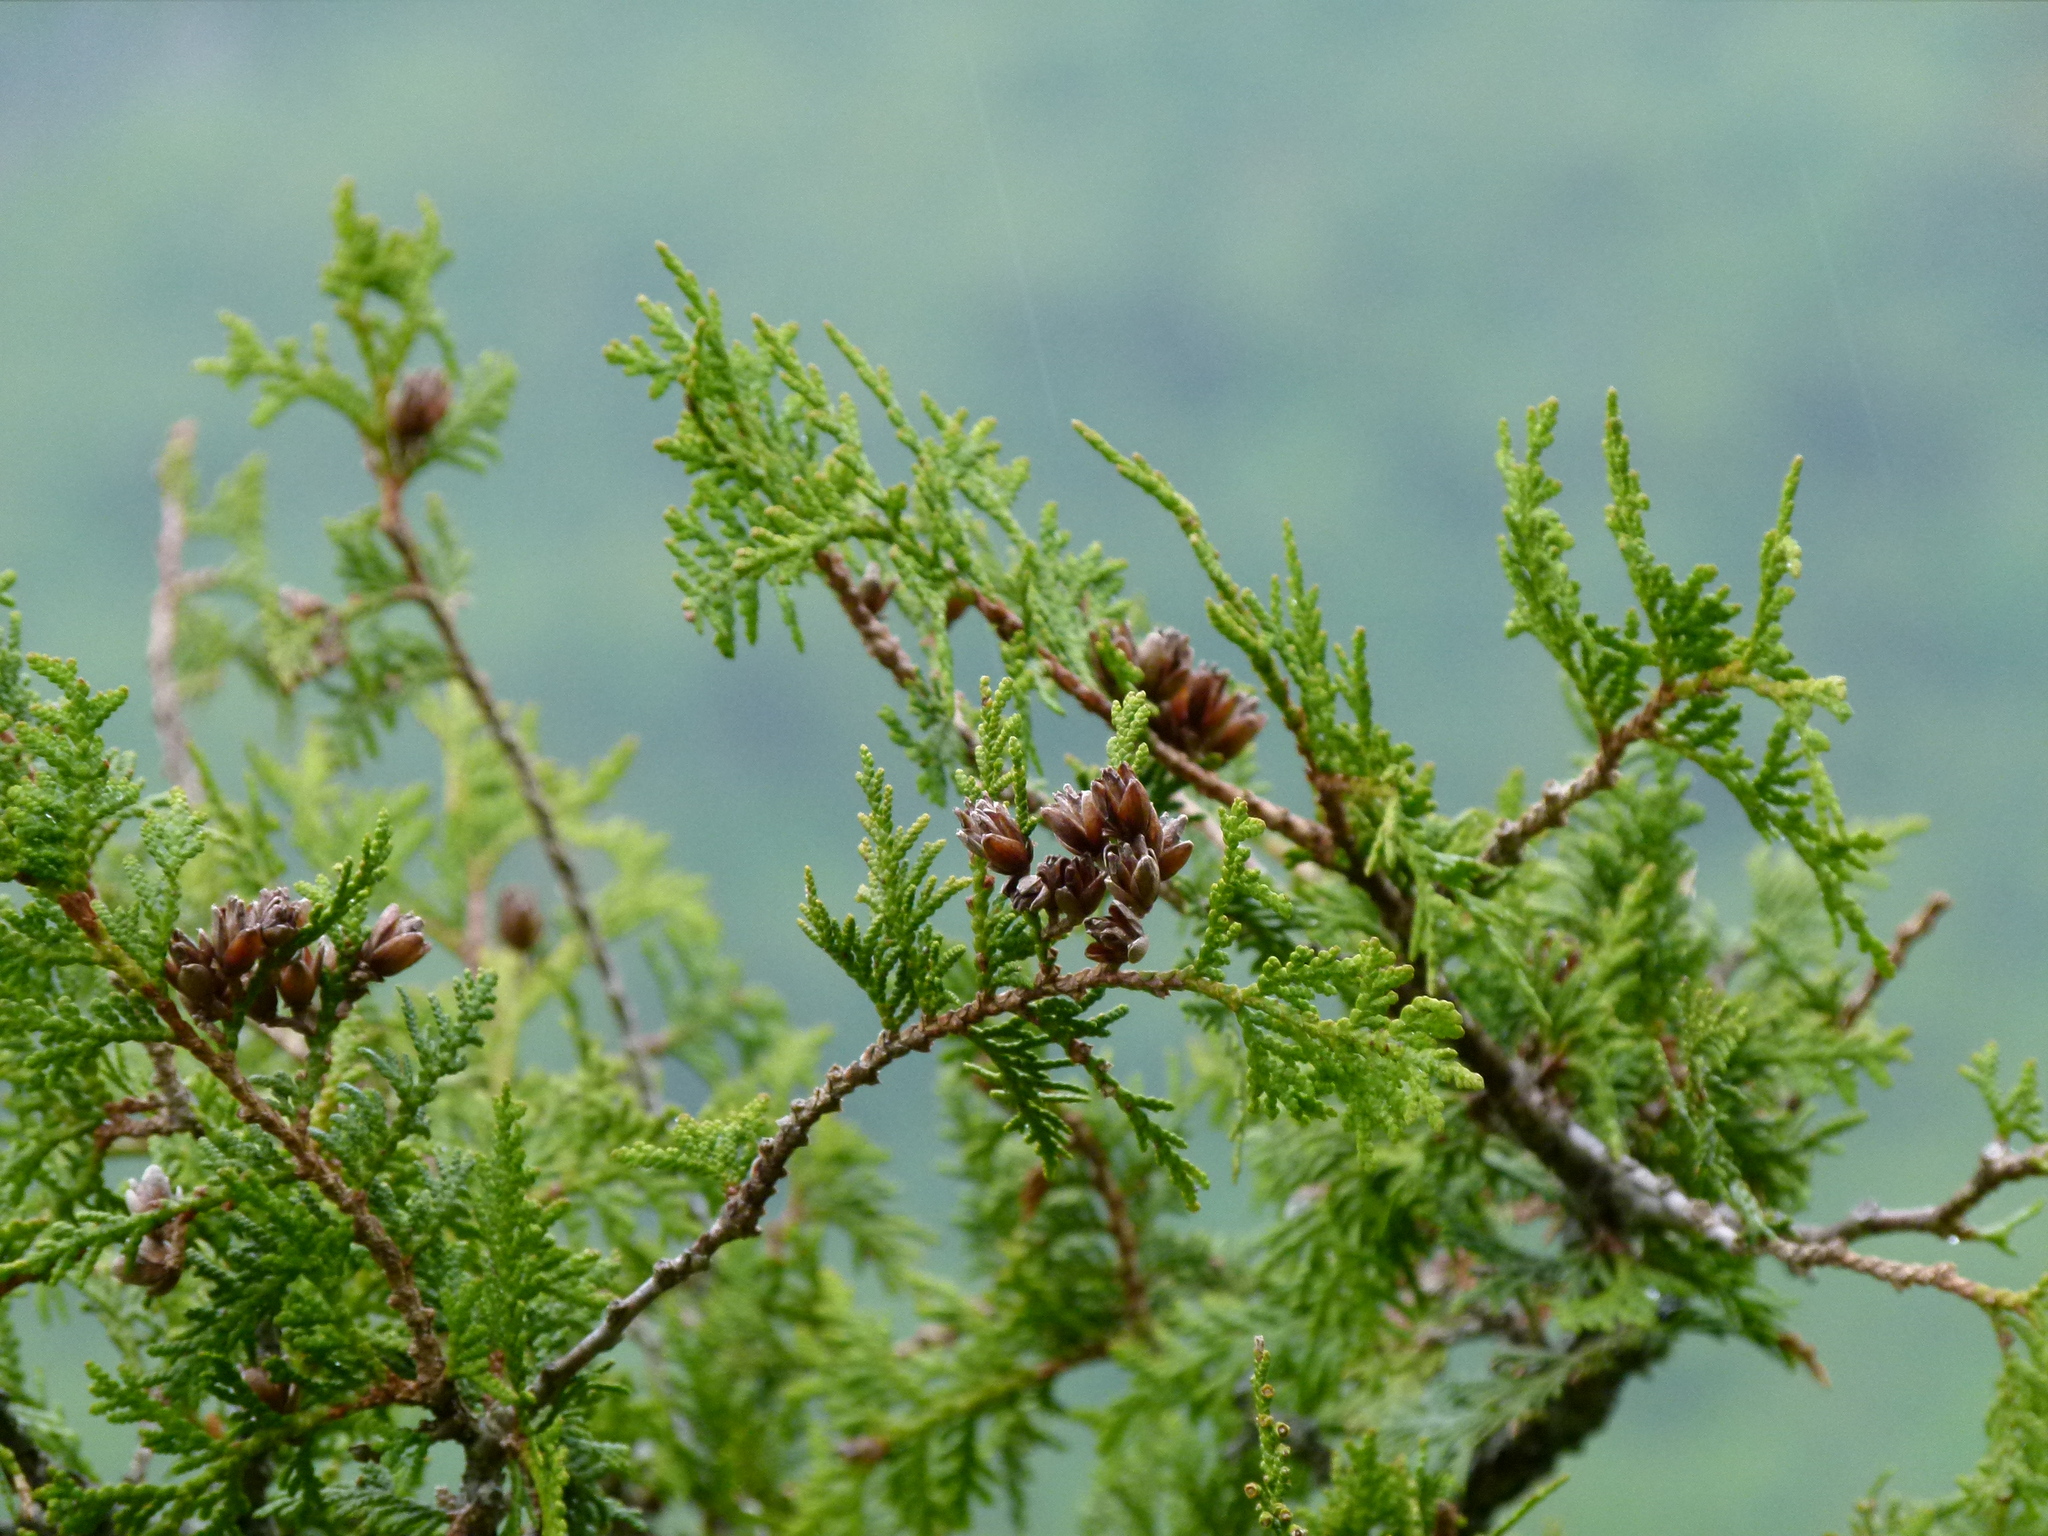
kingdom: Plantae
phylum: Tracheophyta
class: Pinopsida
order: Pinales
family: Cupressaceae
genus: Thuja
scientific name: Thuja occidentalis
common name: Northern white-cedar
